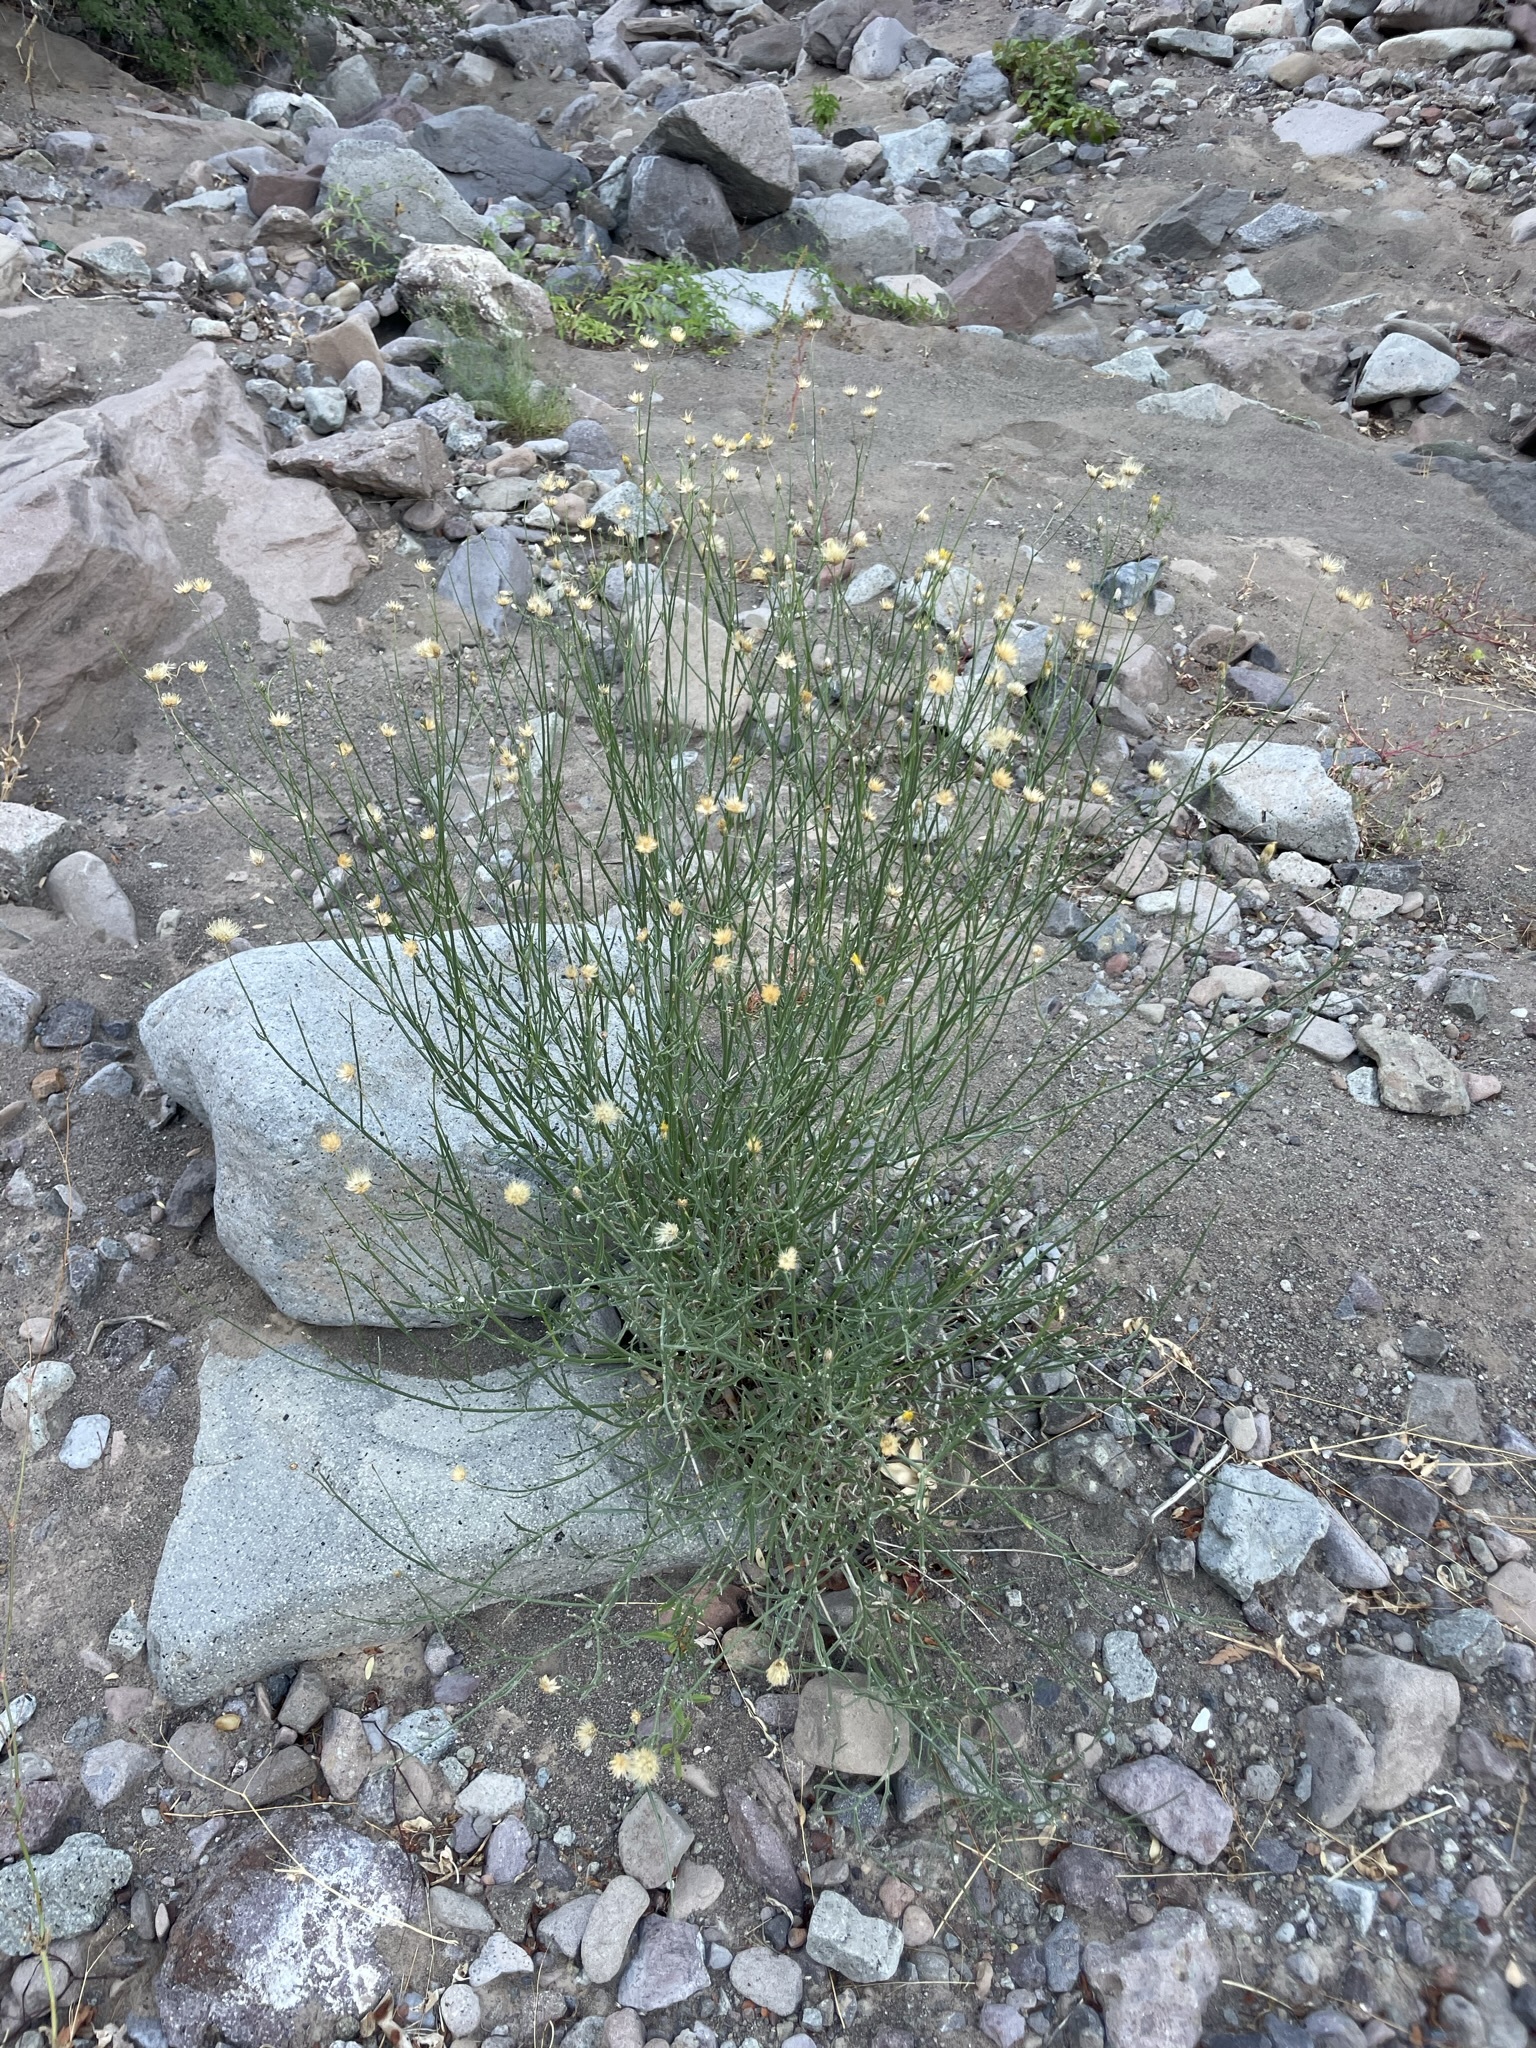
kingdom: Plantae
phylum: Tracheophyta
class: Magnoliopsida
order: Asterales
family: Asteraceae
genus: Bebbia
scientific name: Bebbia juncea
